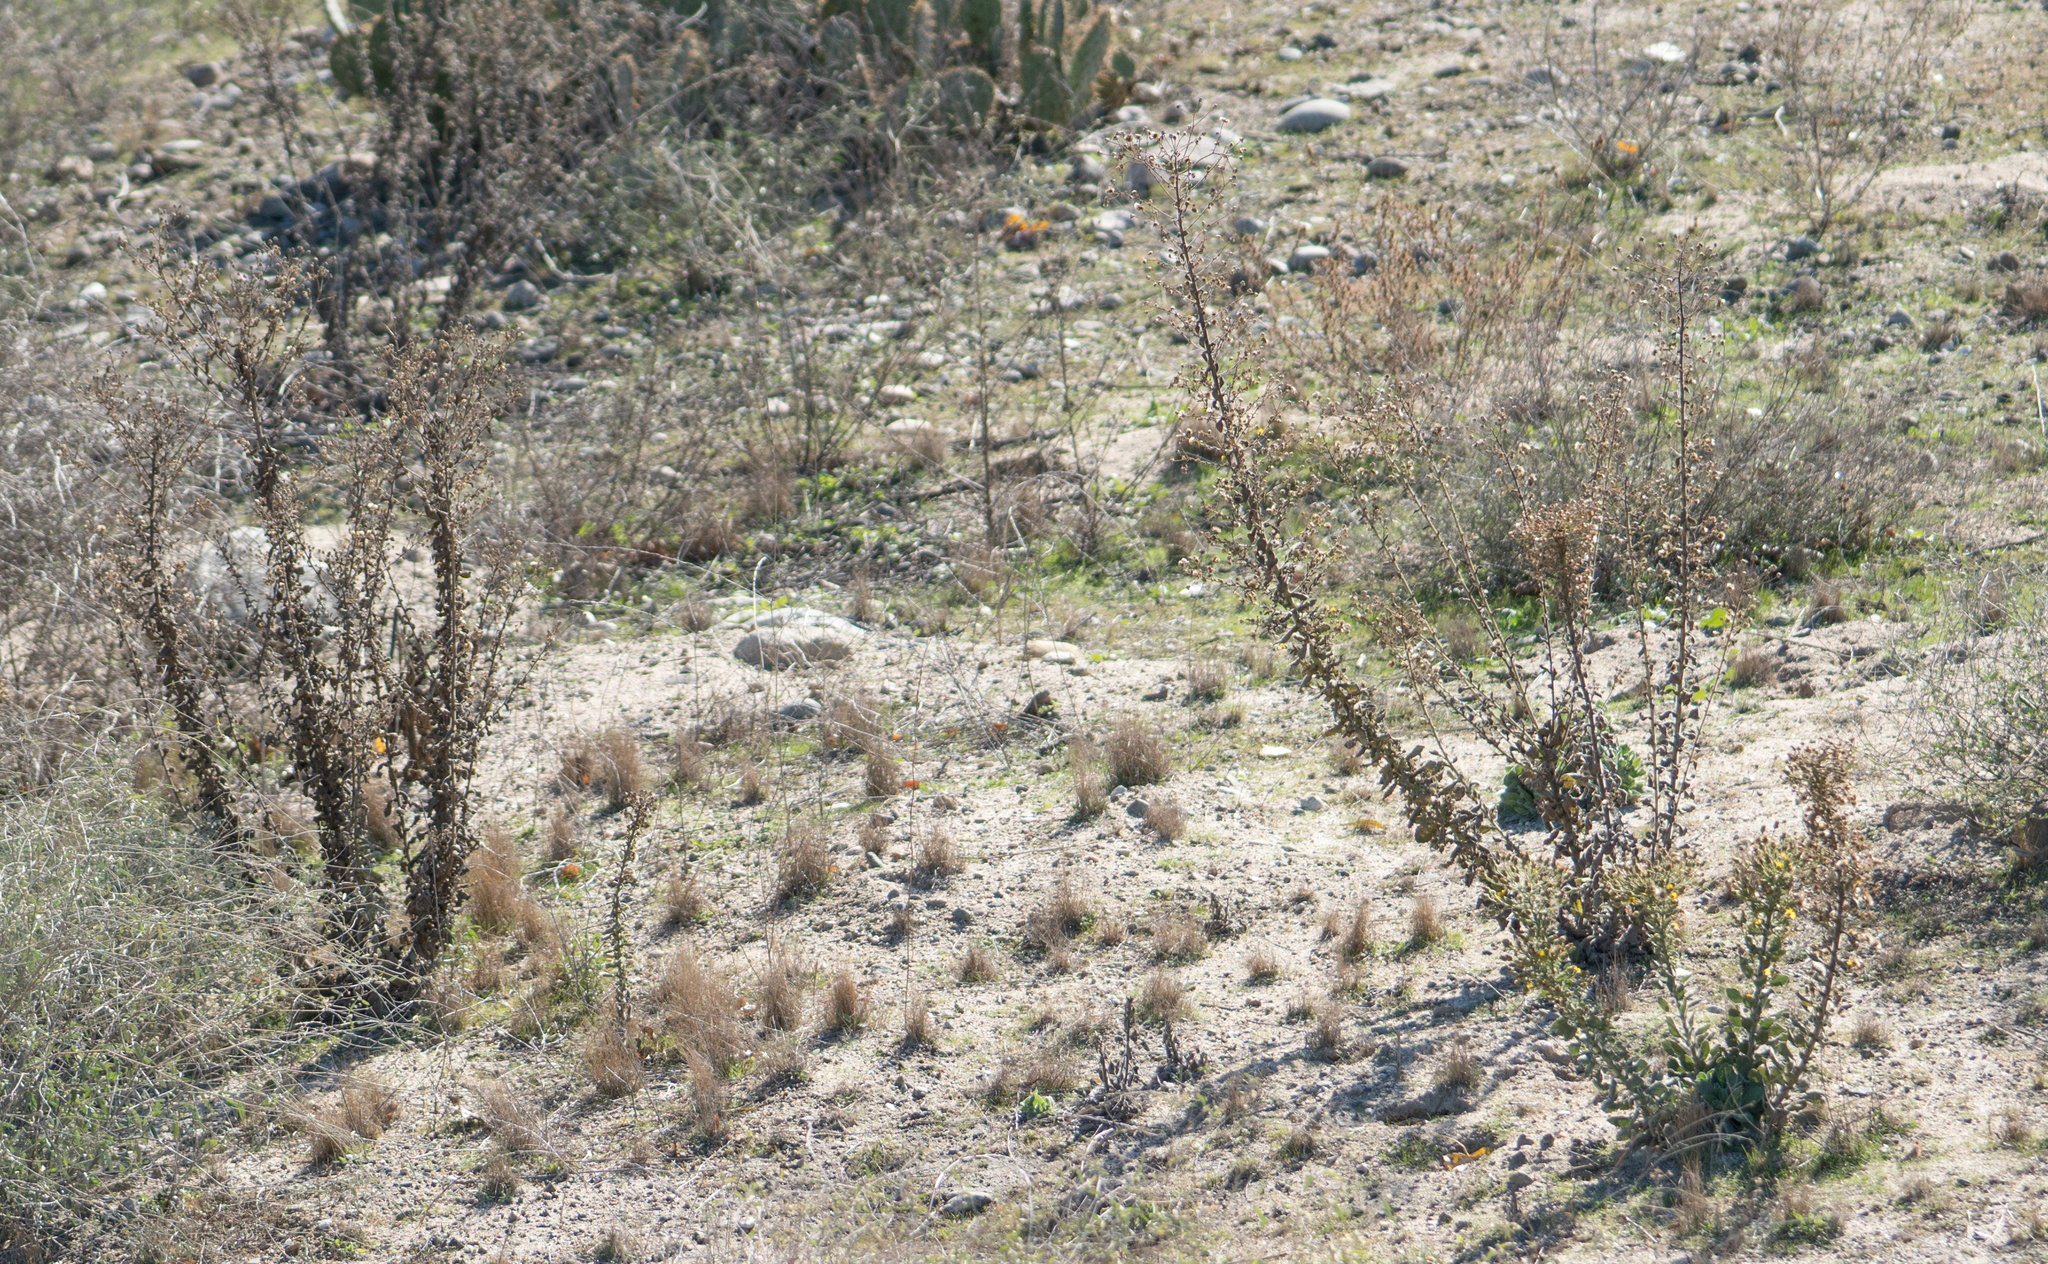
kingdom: Plantae
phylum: Tracheophyta
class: Magnoliopsida
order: Asterales
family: Asteraceae
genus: Heterotheca
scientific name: Heterotheca grandiflora
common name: Telegraphweed
